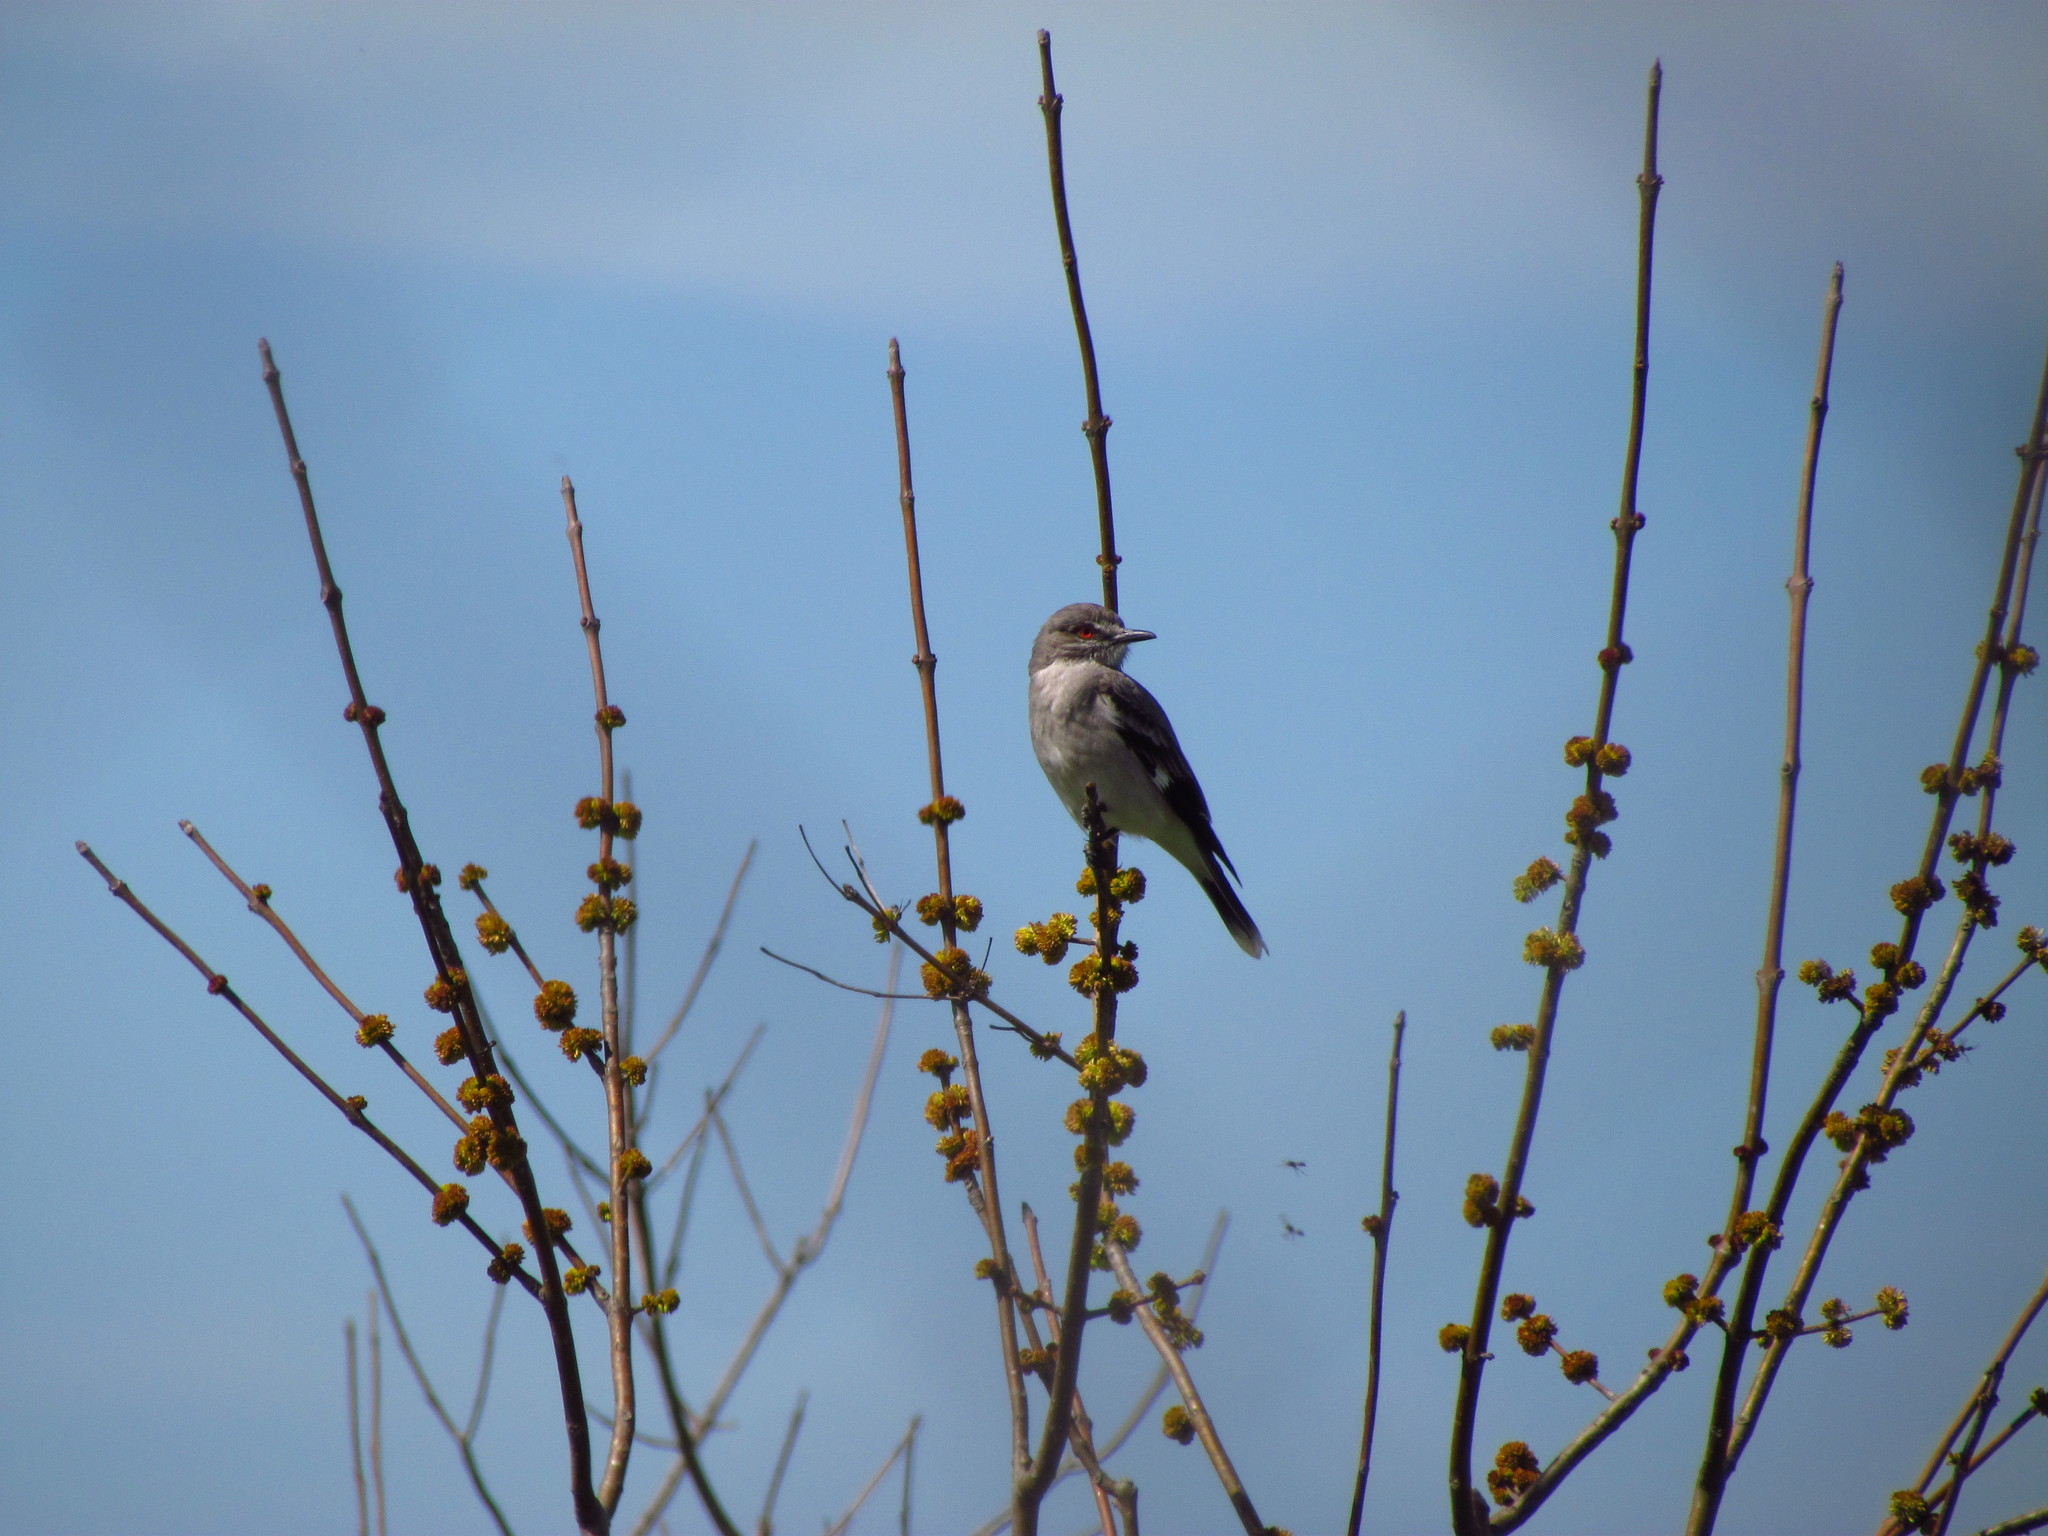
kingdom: Animalia
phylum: Chordata
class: Aves
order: Passeriformes
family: Tyrannidae
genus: Xolmis
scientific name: Xolmis cinereus
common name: Grey monjita
